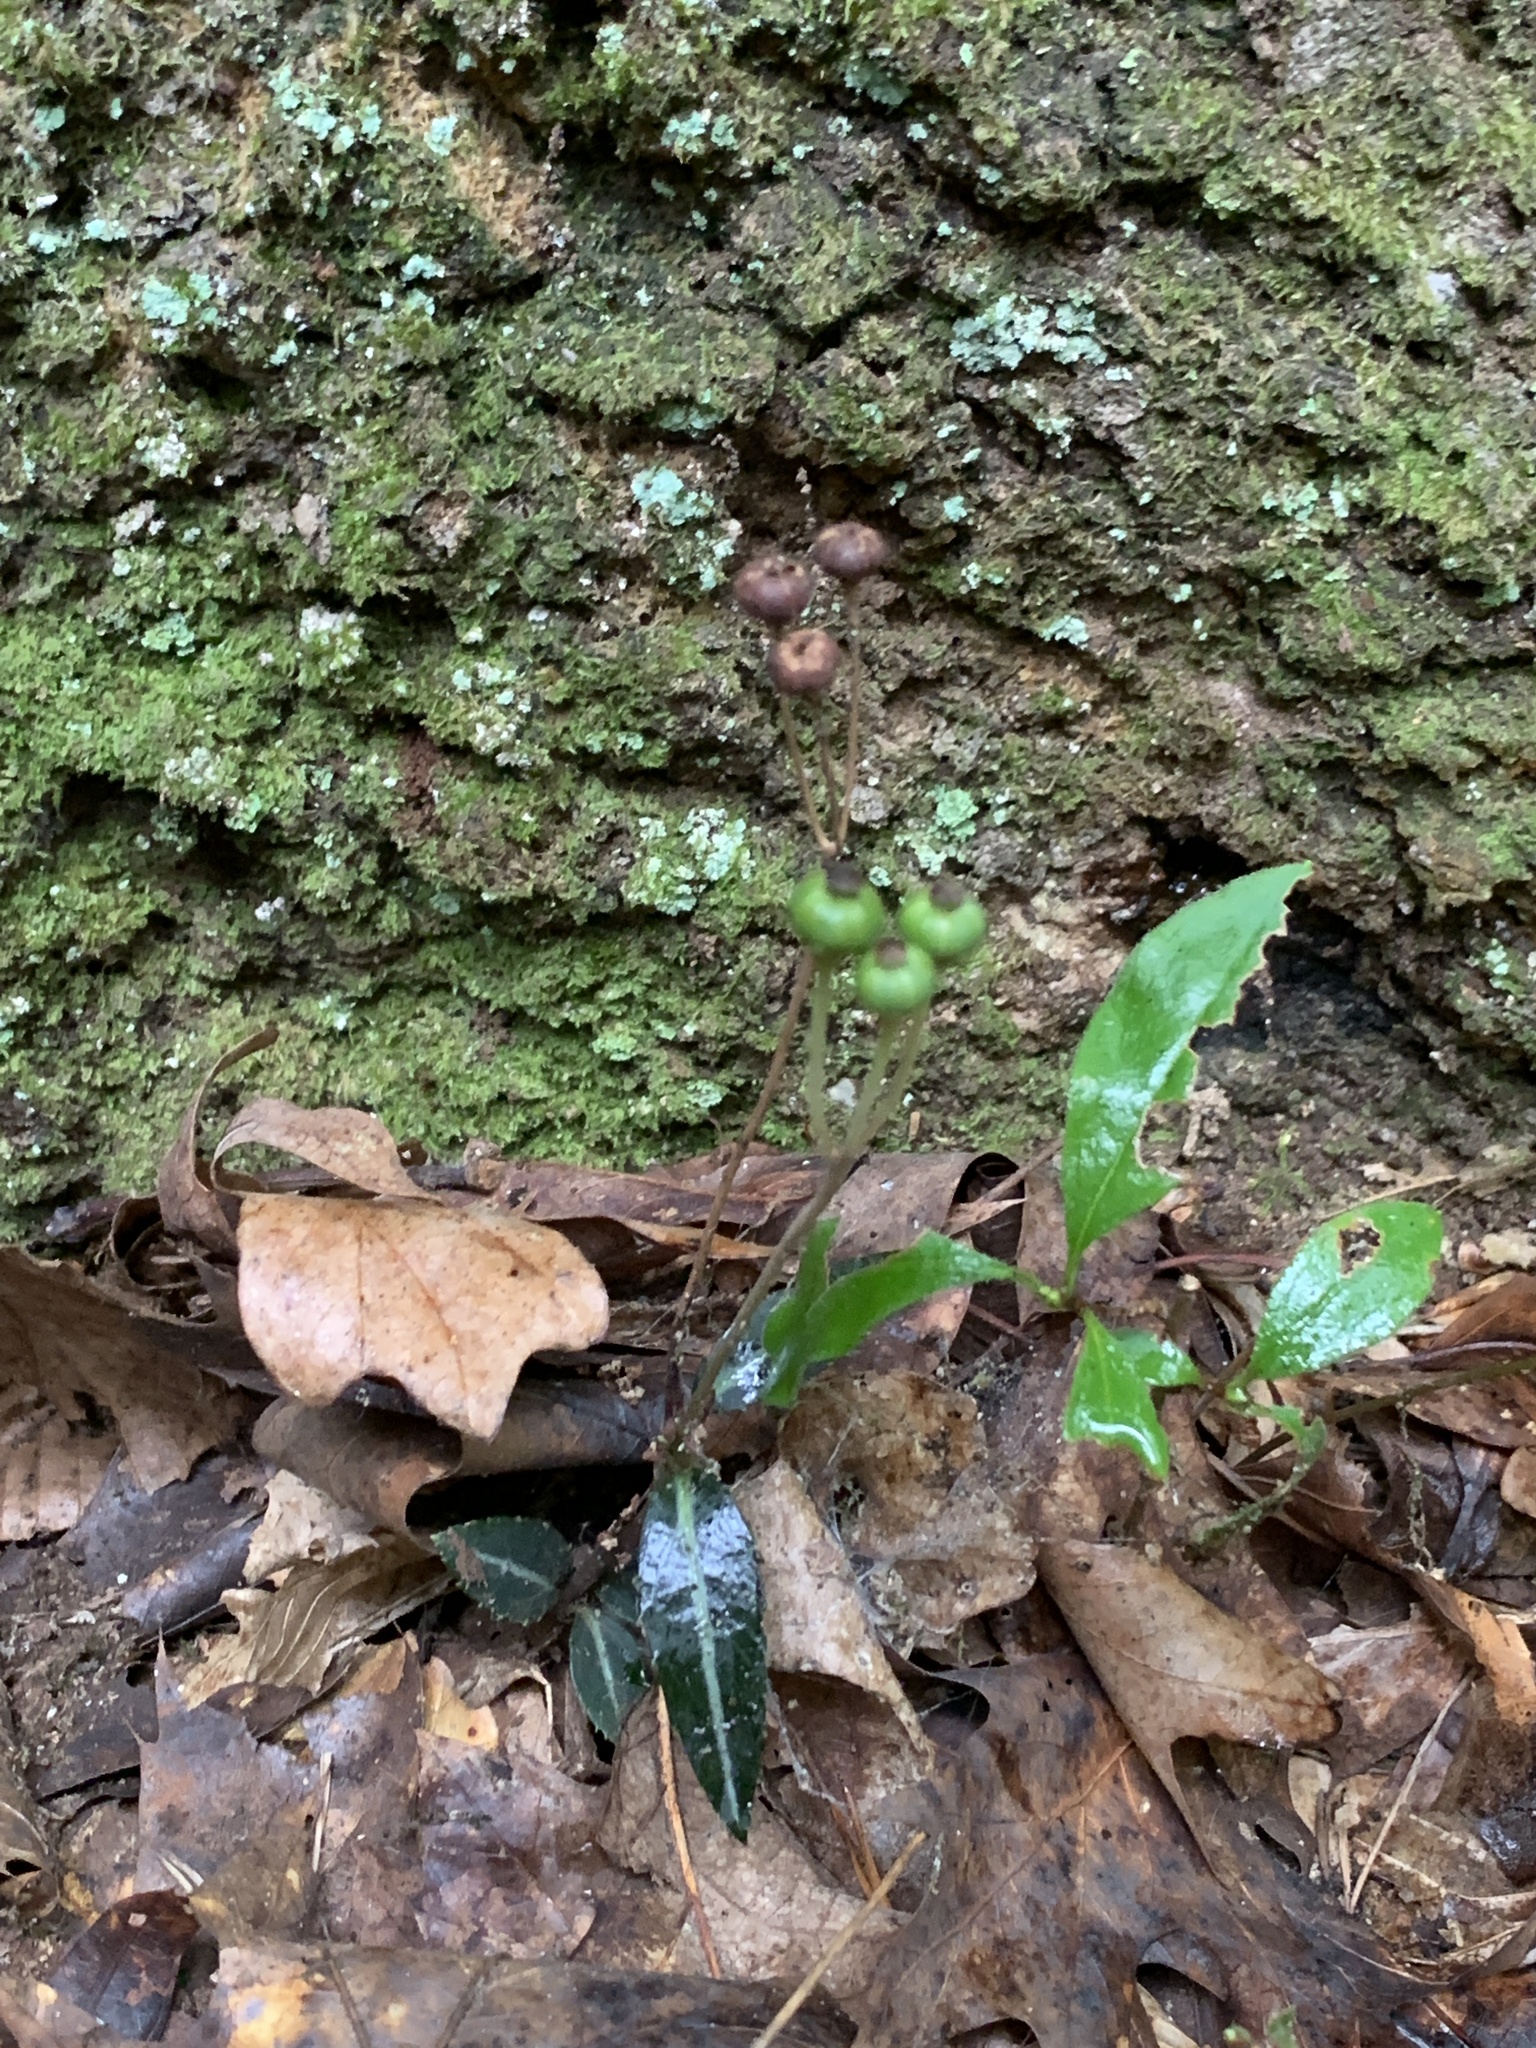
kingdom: Plantae
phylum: Tracheophyta
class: Magnoliopsida
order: Ericales
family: Ericaceae
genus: Chimaphila
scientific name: Chimaphila maculata
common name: Spotted pipsissewa
